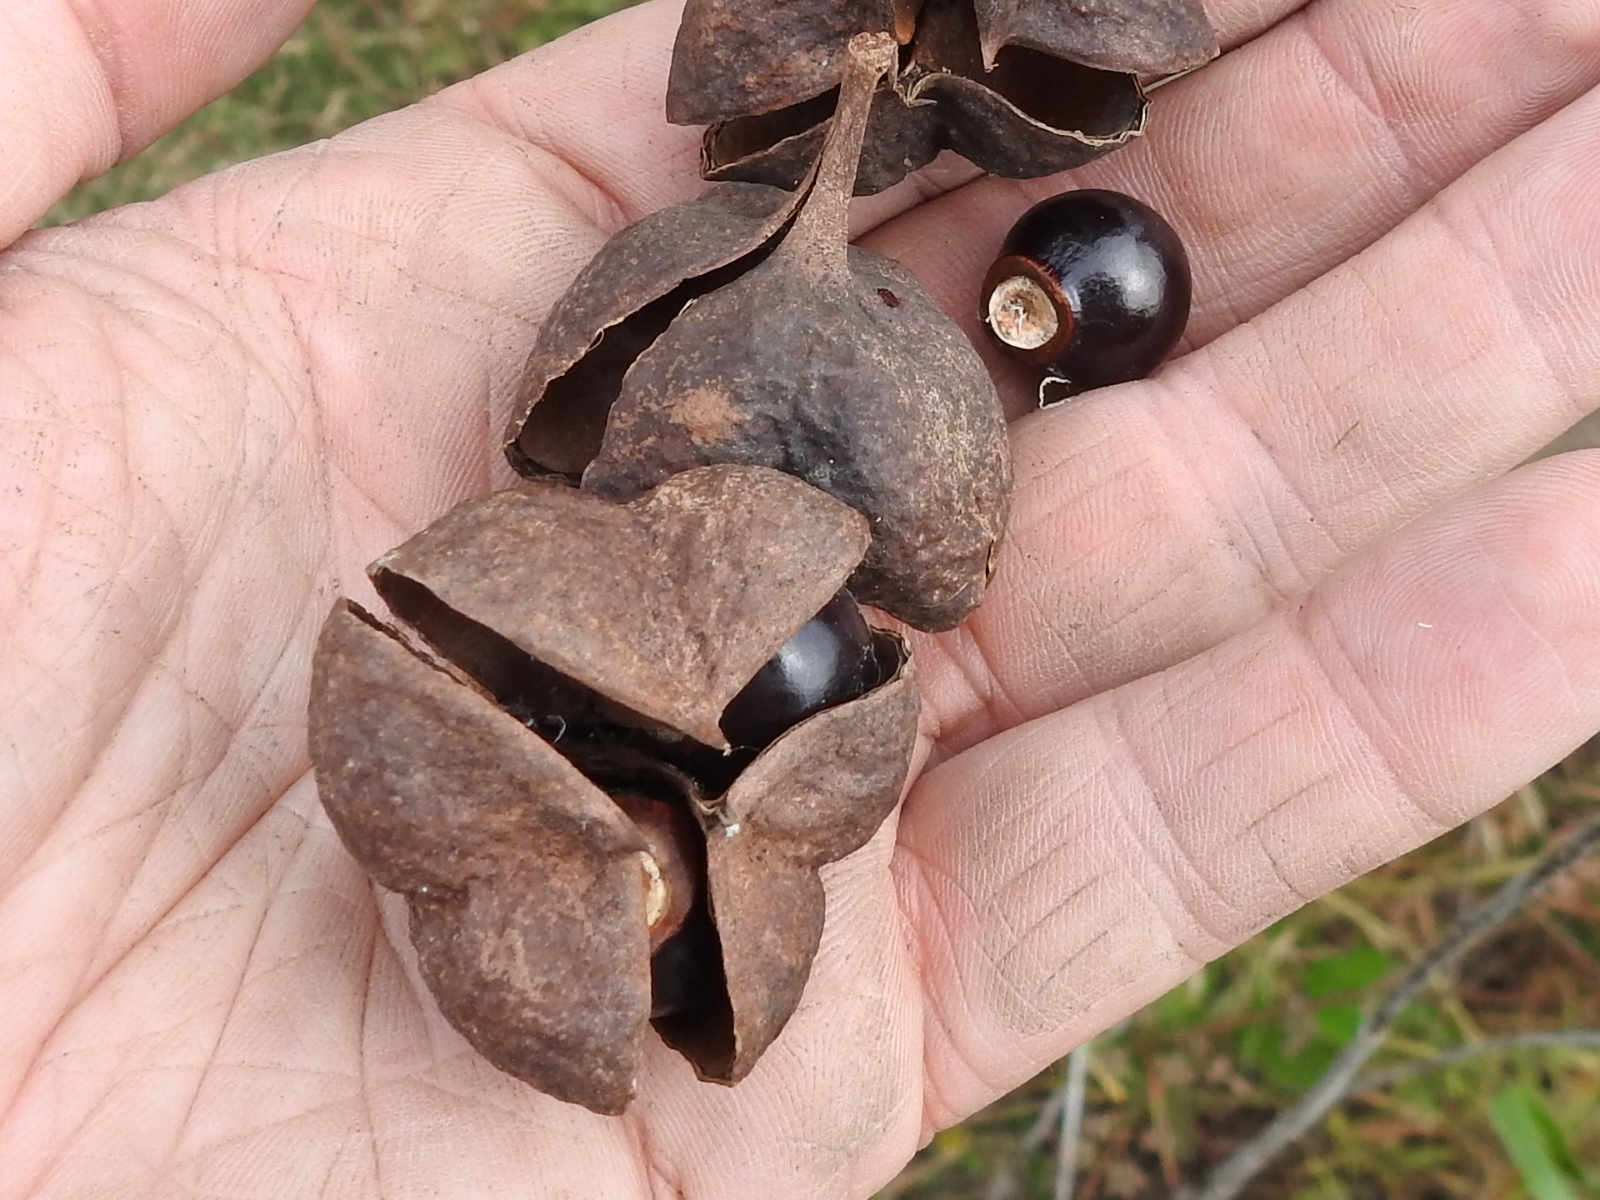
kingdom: Plantae
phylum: Tracheophyta
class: Magnoliopsida
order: Sapindales
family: Sapindaceae
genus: Ungnadia
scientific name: Ungnadia speciosa
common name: Texas-buckeye
